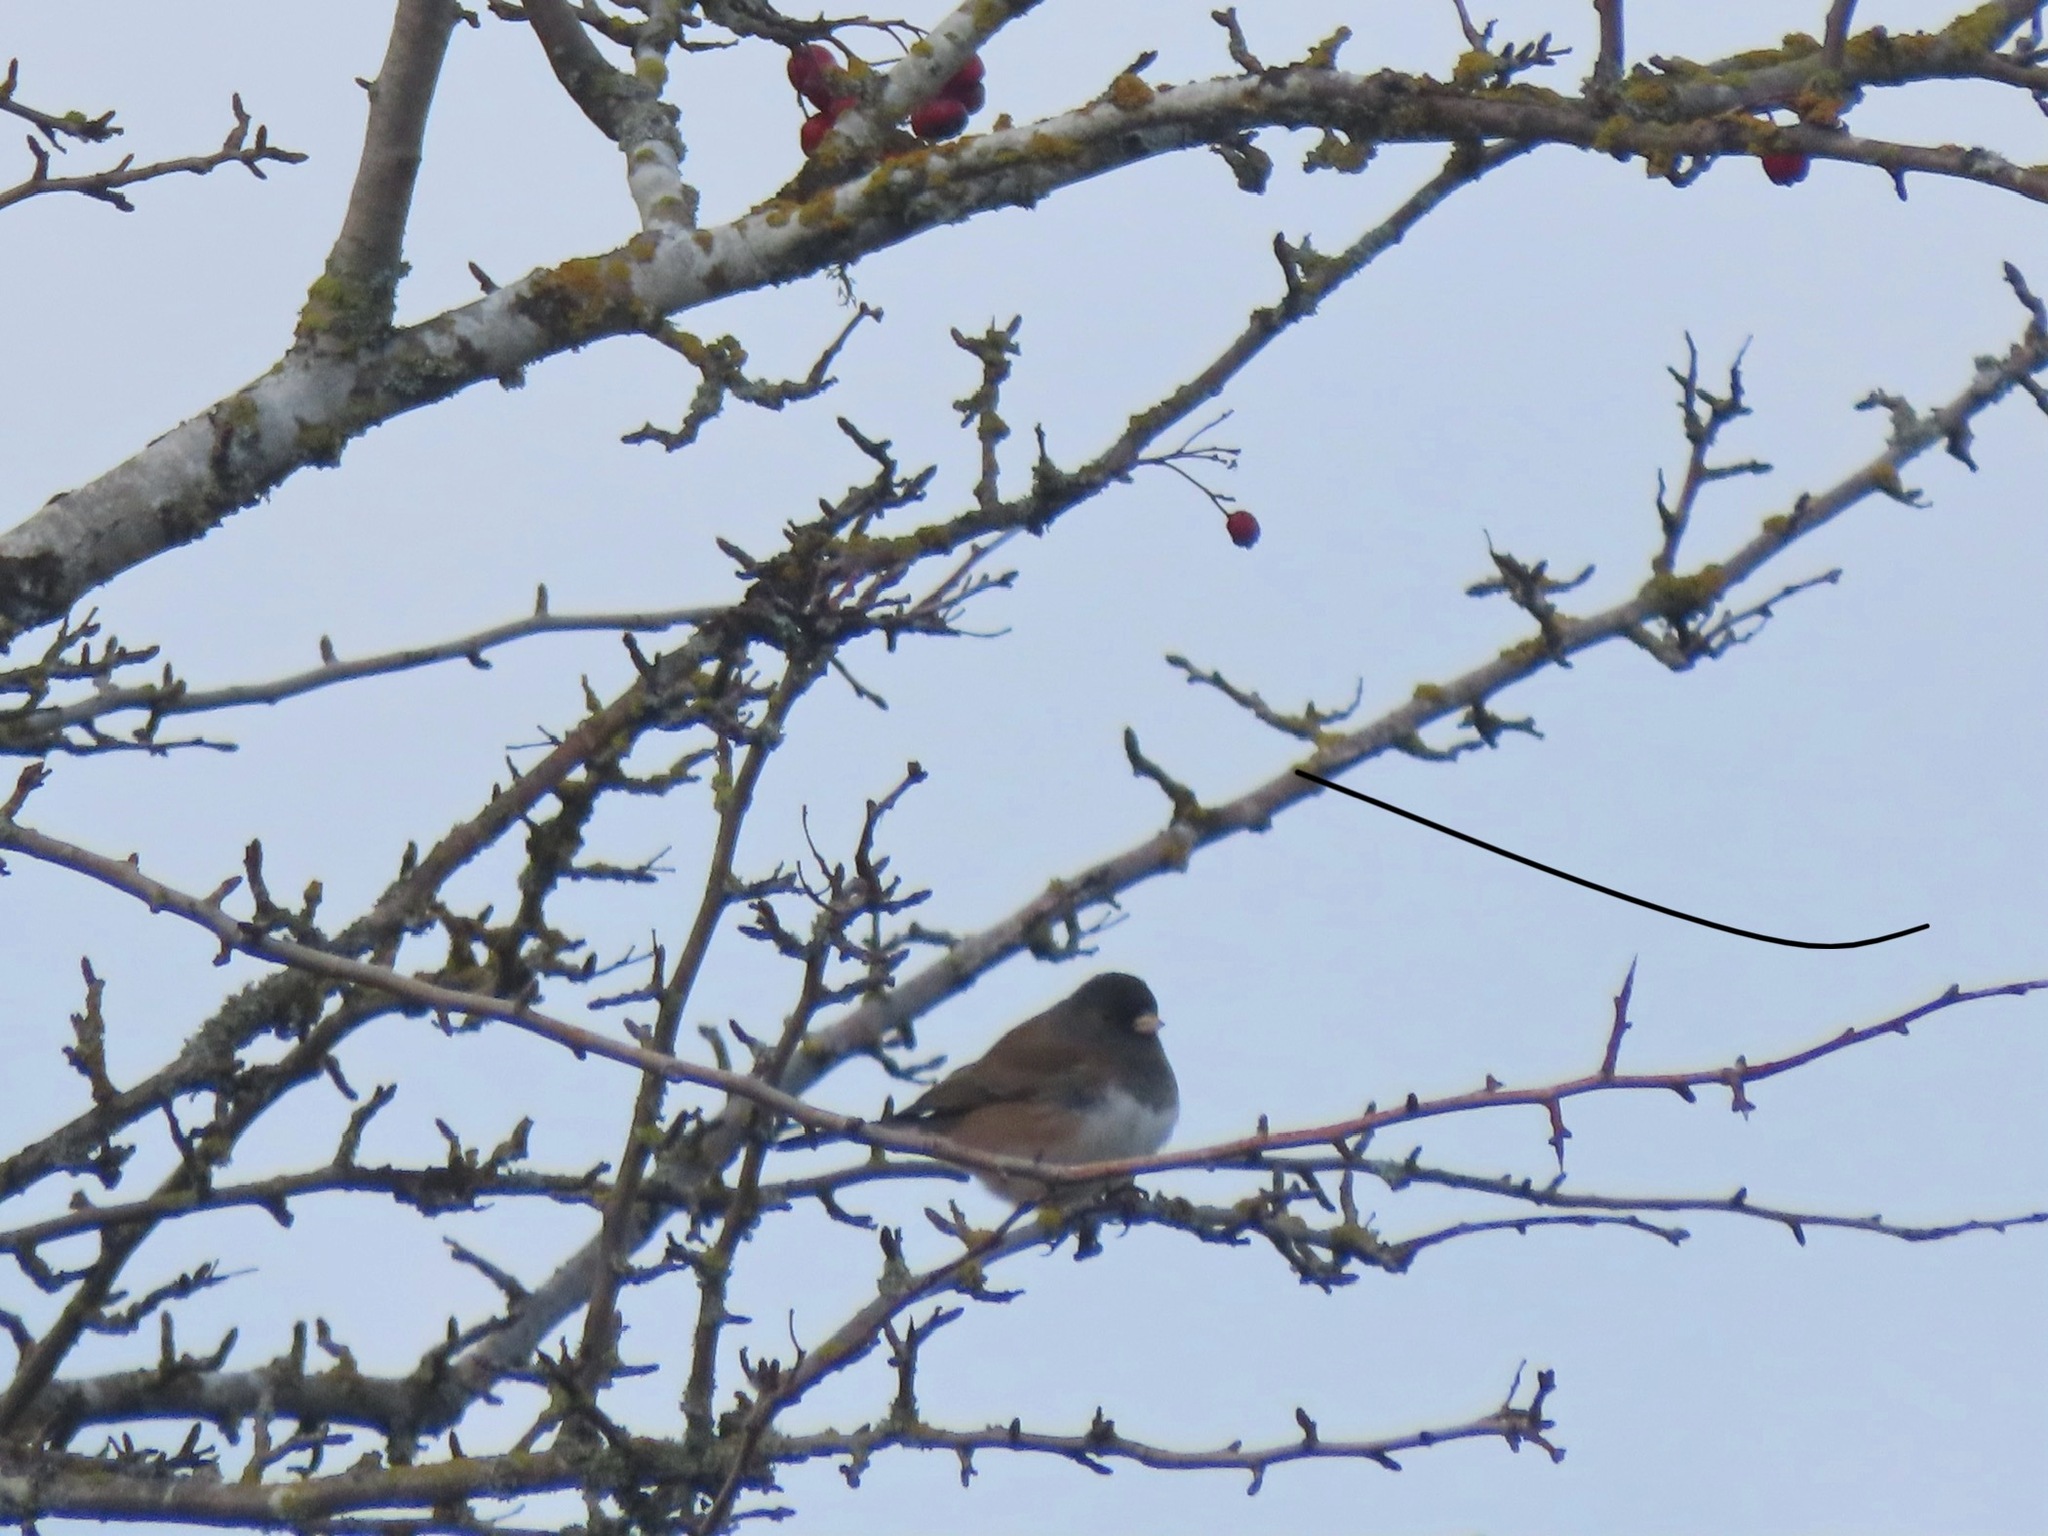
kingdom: Animalia
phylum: Chordata
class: Aves
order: Passeriformes
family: Passerellidae
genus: Junco
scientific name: Junco hyemalis
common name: Dark-eyed junco
